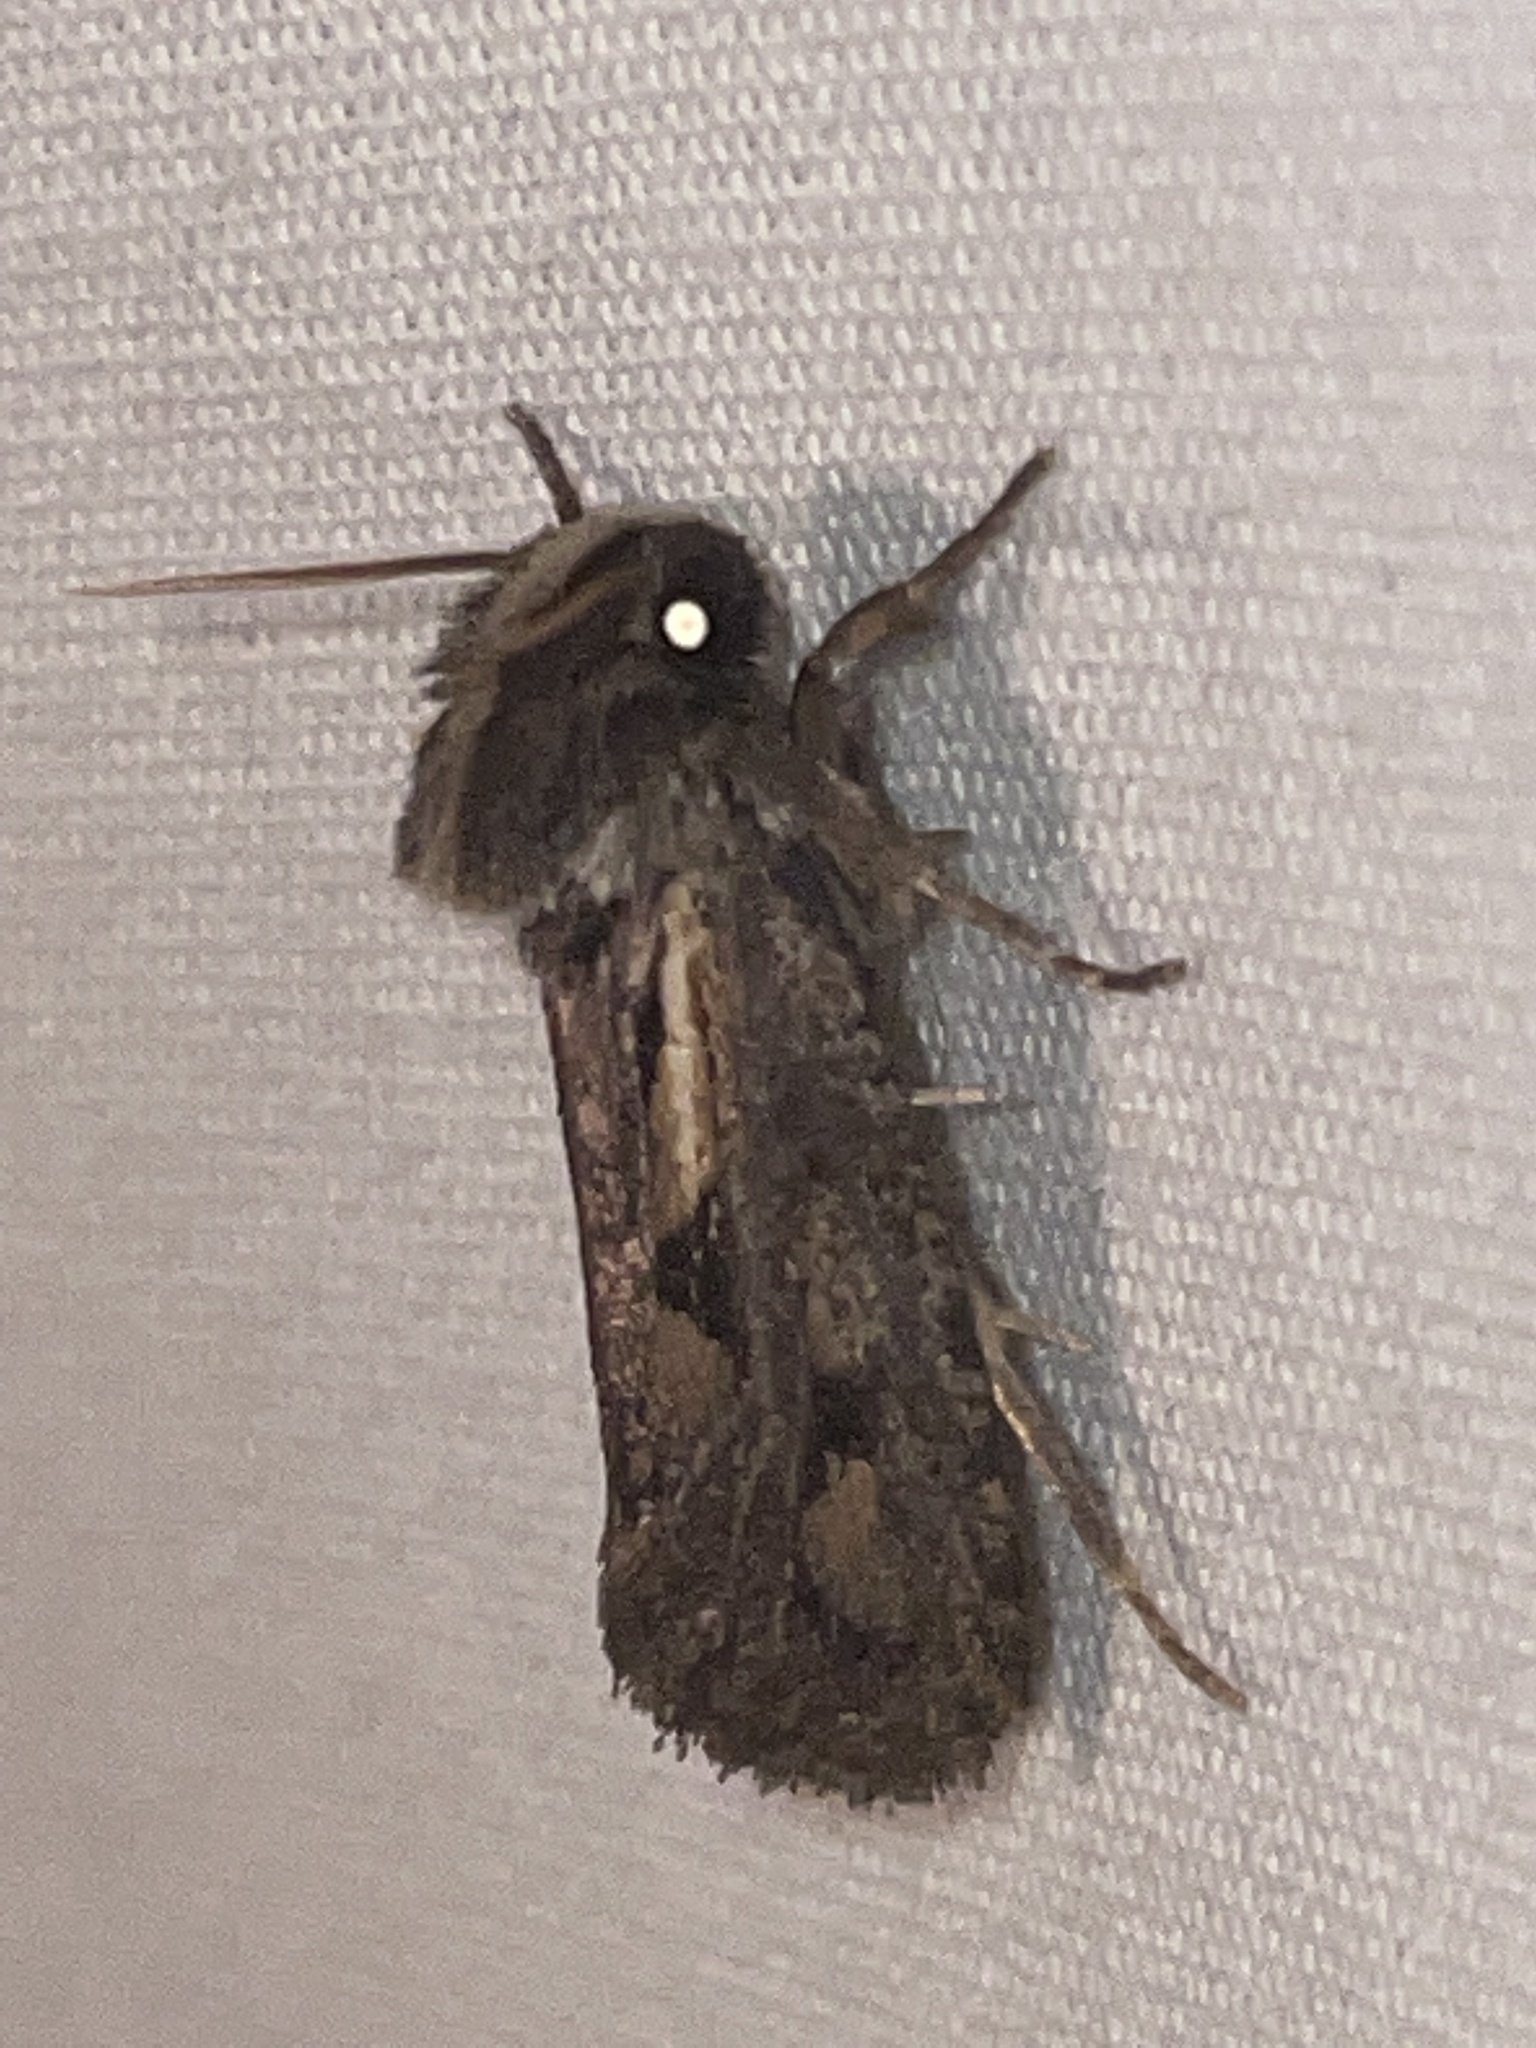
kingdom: Animalia
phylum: Arthropoda
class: Insecta
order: Lepidoptera
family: Tineidae
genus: Acrolophus
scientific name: Acrolophus popeanella
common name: Clemens' grass tubeworm moth
